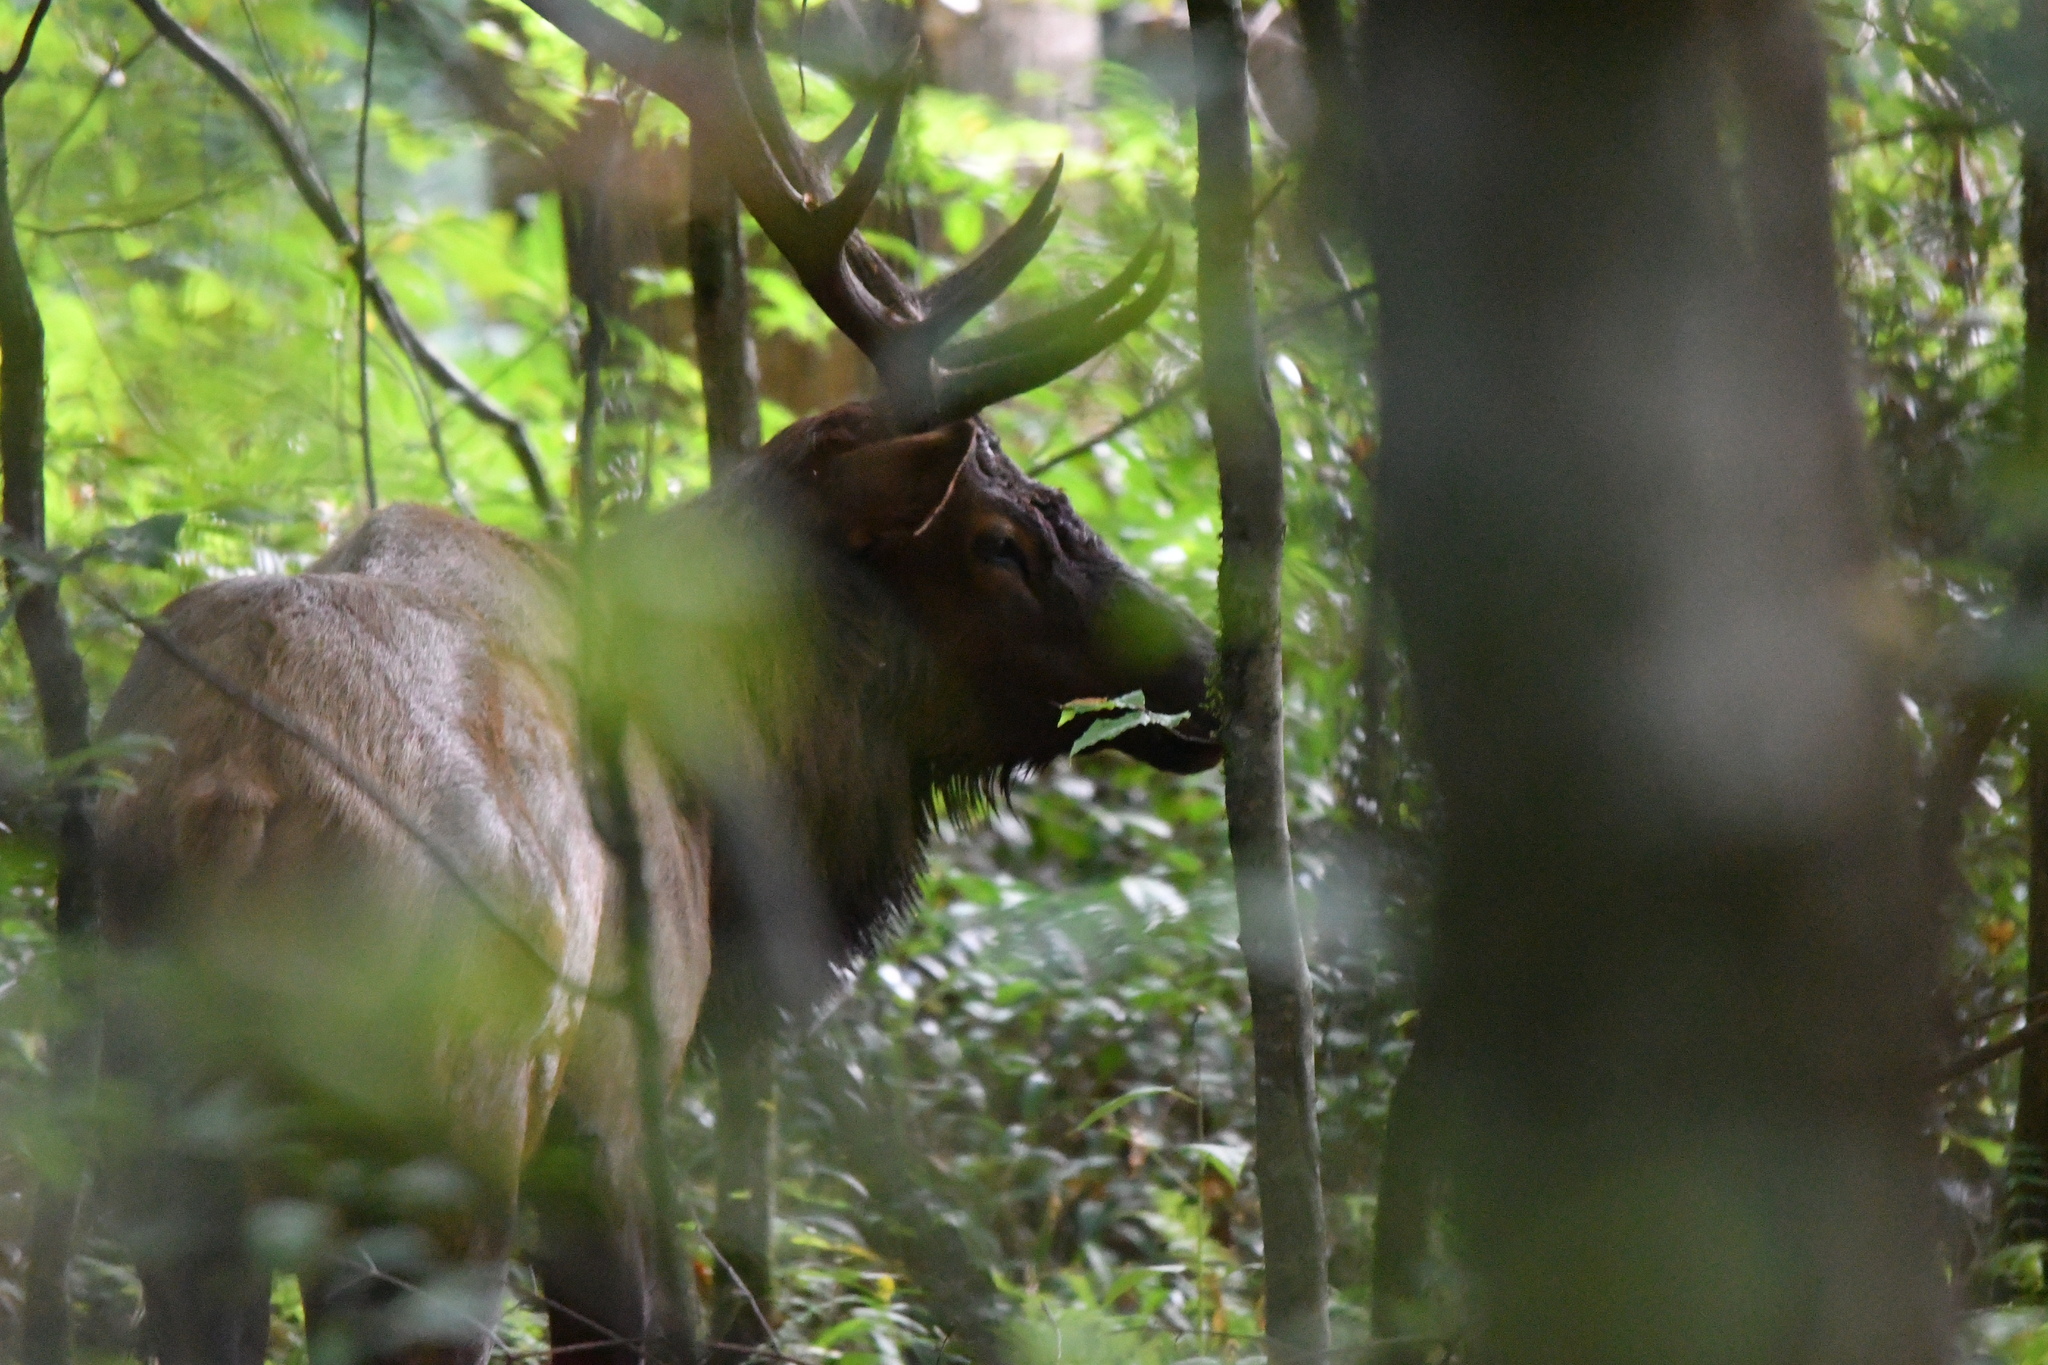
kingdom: Animalia
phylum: Chordata
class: Mammalia
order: Artiodactyla
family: Cervidae
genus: Cervus
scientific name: Cervus elaphus
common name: Red deer
